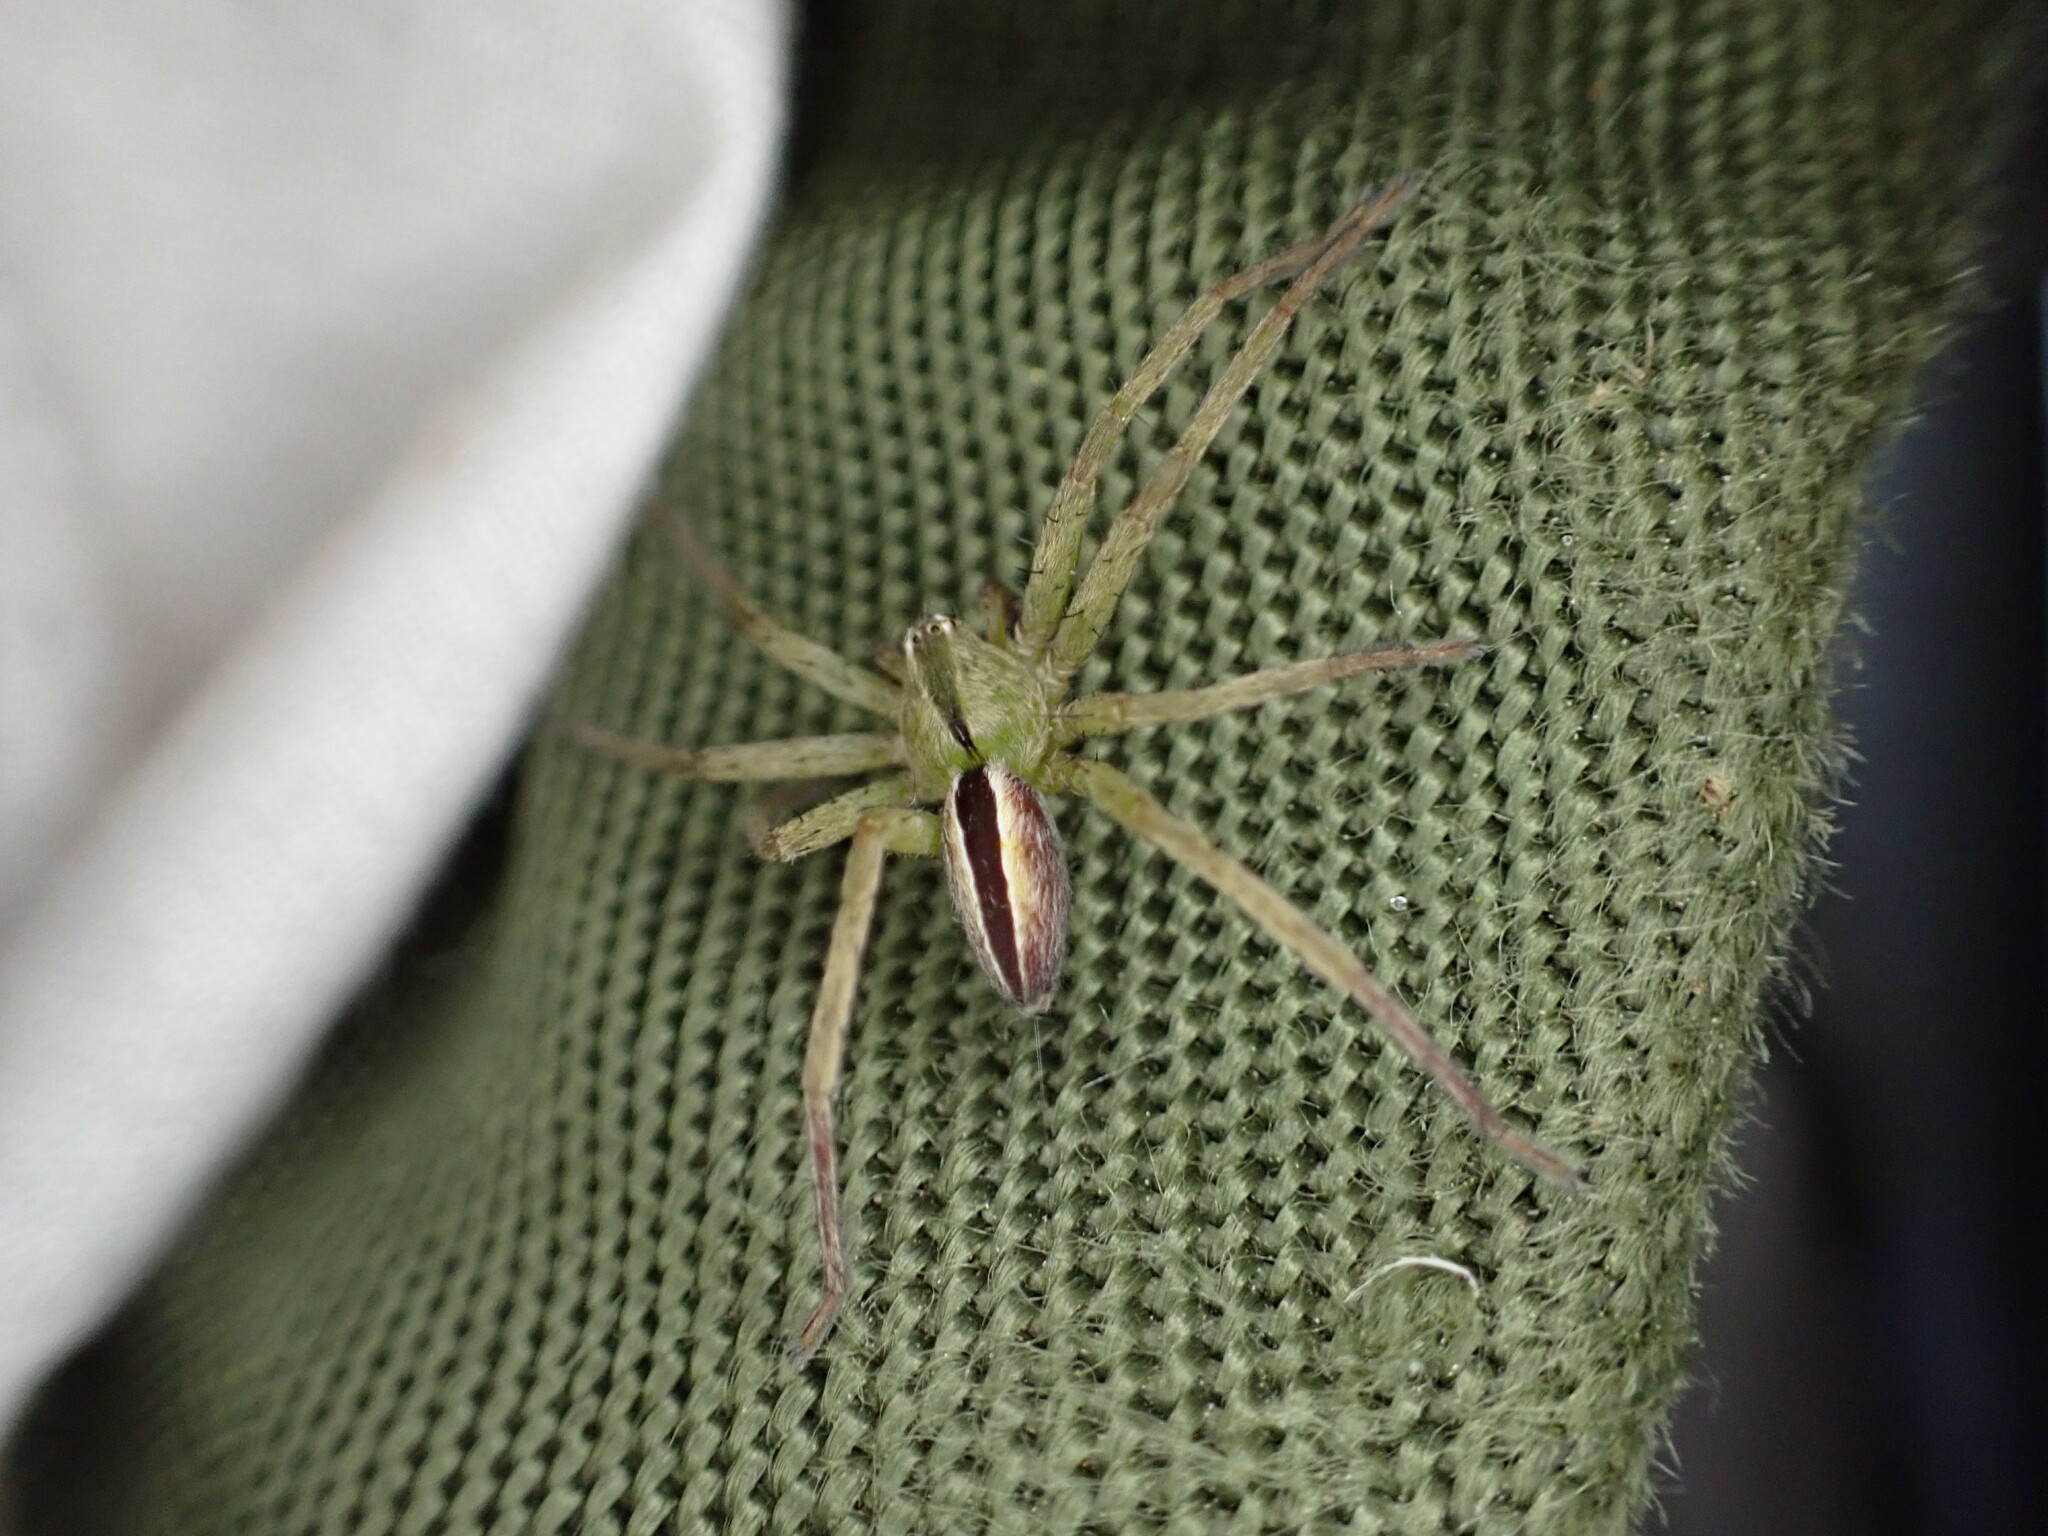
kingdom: Animalia
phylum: Arthropoda
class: Arachnida
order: Araneae
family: Sparassidae
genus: Micrommata
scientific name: Micrommata ligurina
